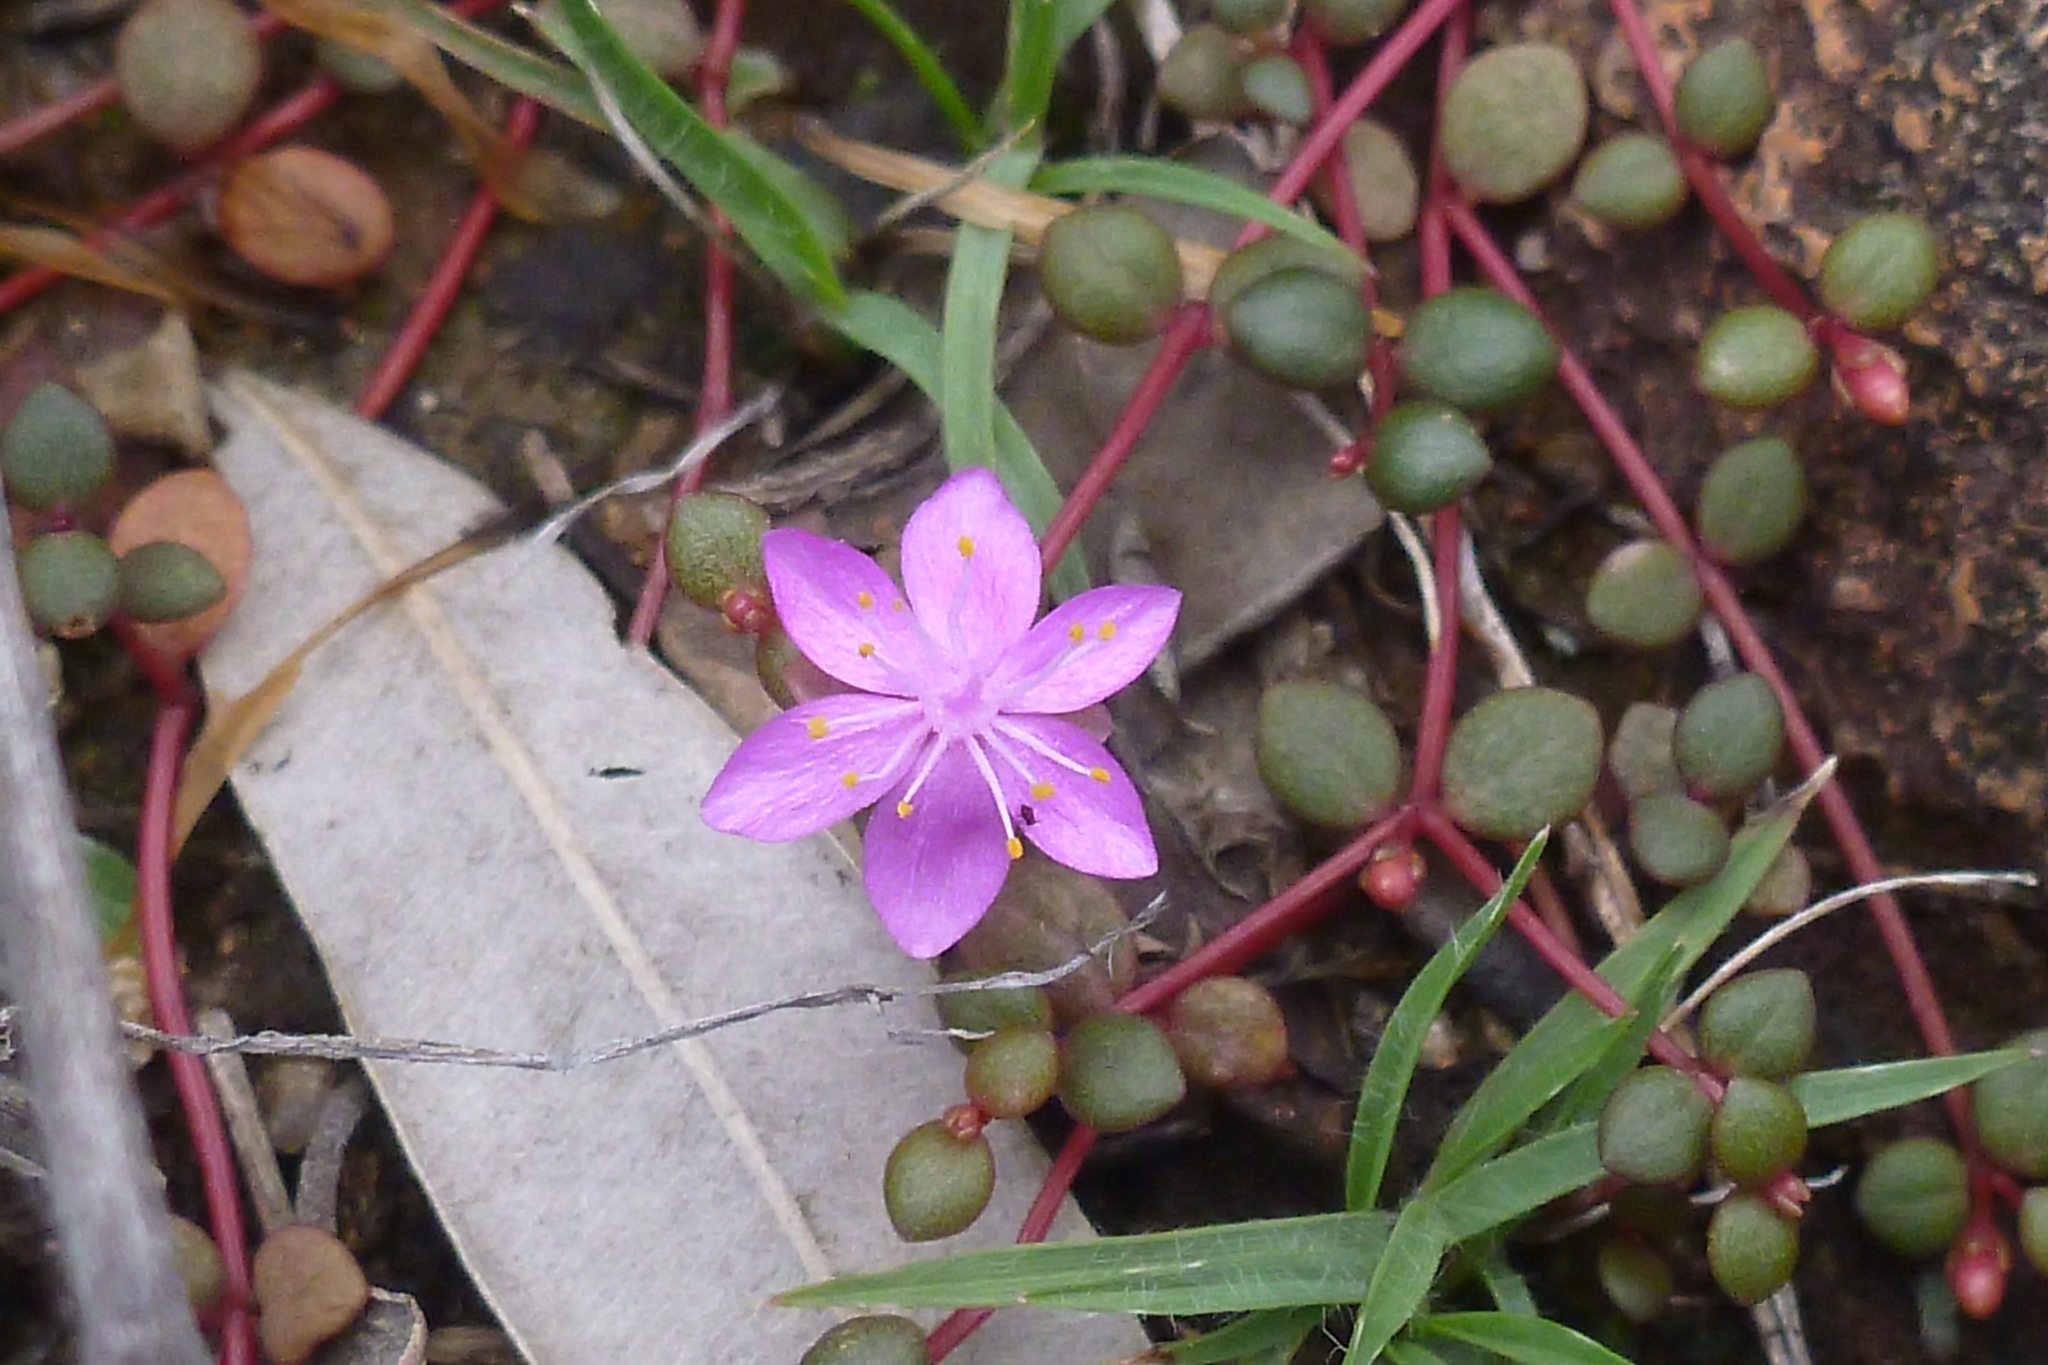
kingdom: Plantae
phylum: Tracheophyta
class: Magnoliopsida
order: Caryophyllales
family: Portulacaceae
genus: Portulaca
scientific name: Portulaca bicolor
